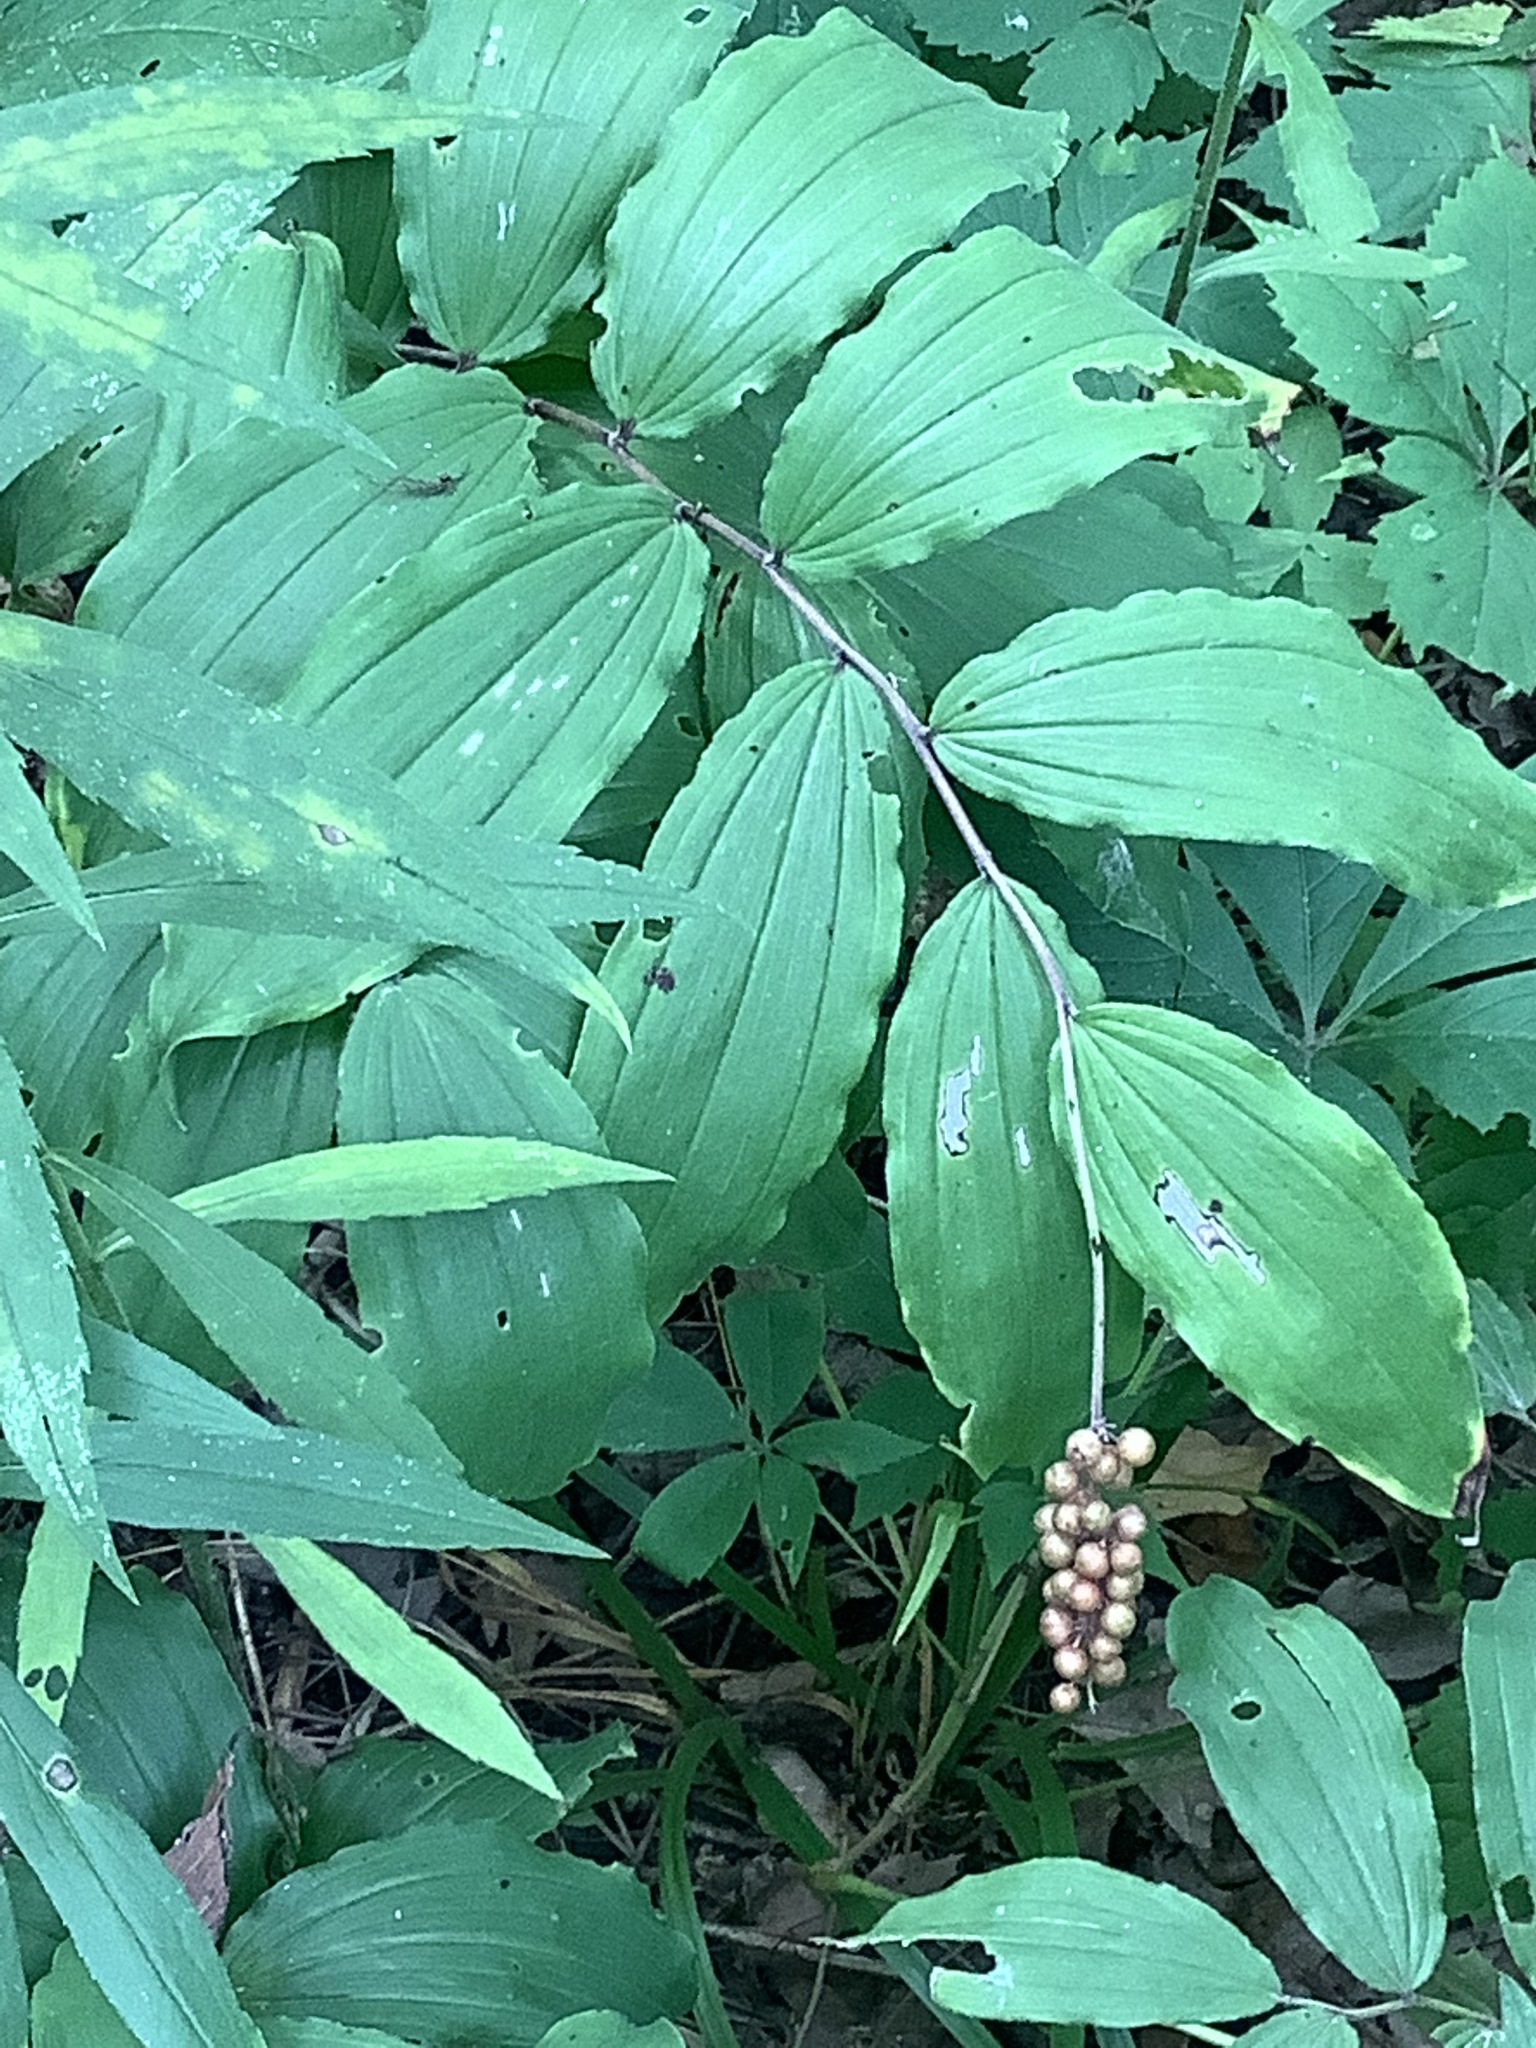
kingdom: Plantae
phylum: Tracheophyta
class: Liliopsida
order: Asparagales
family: Asparagaceae
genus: Maianthemum
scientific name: Maianthemum racemosum
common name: False spikenard
